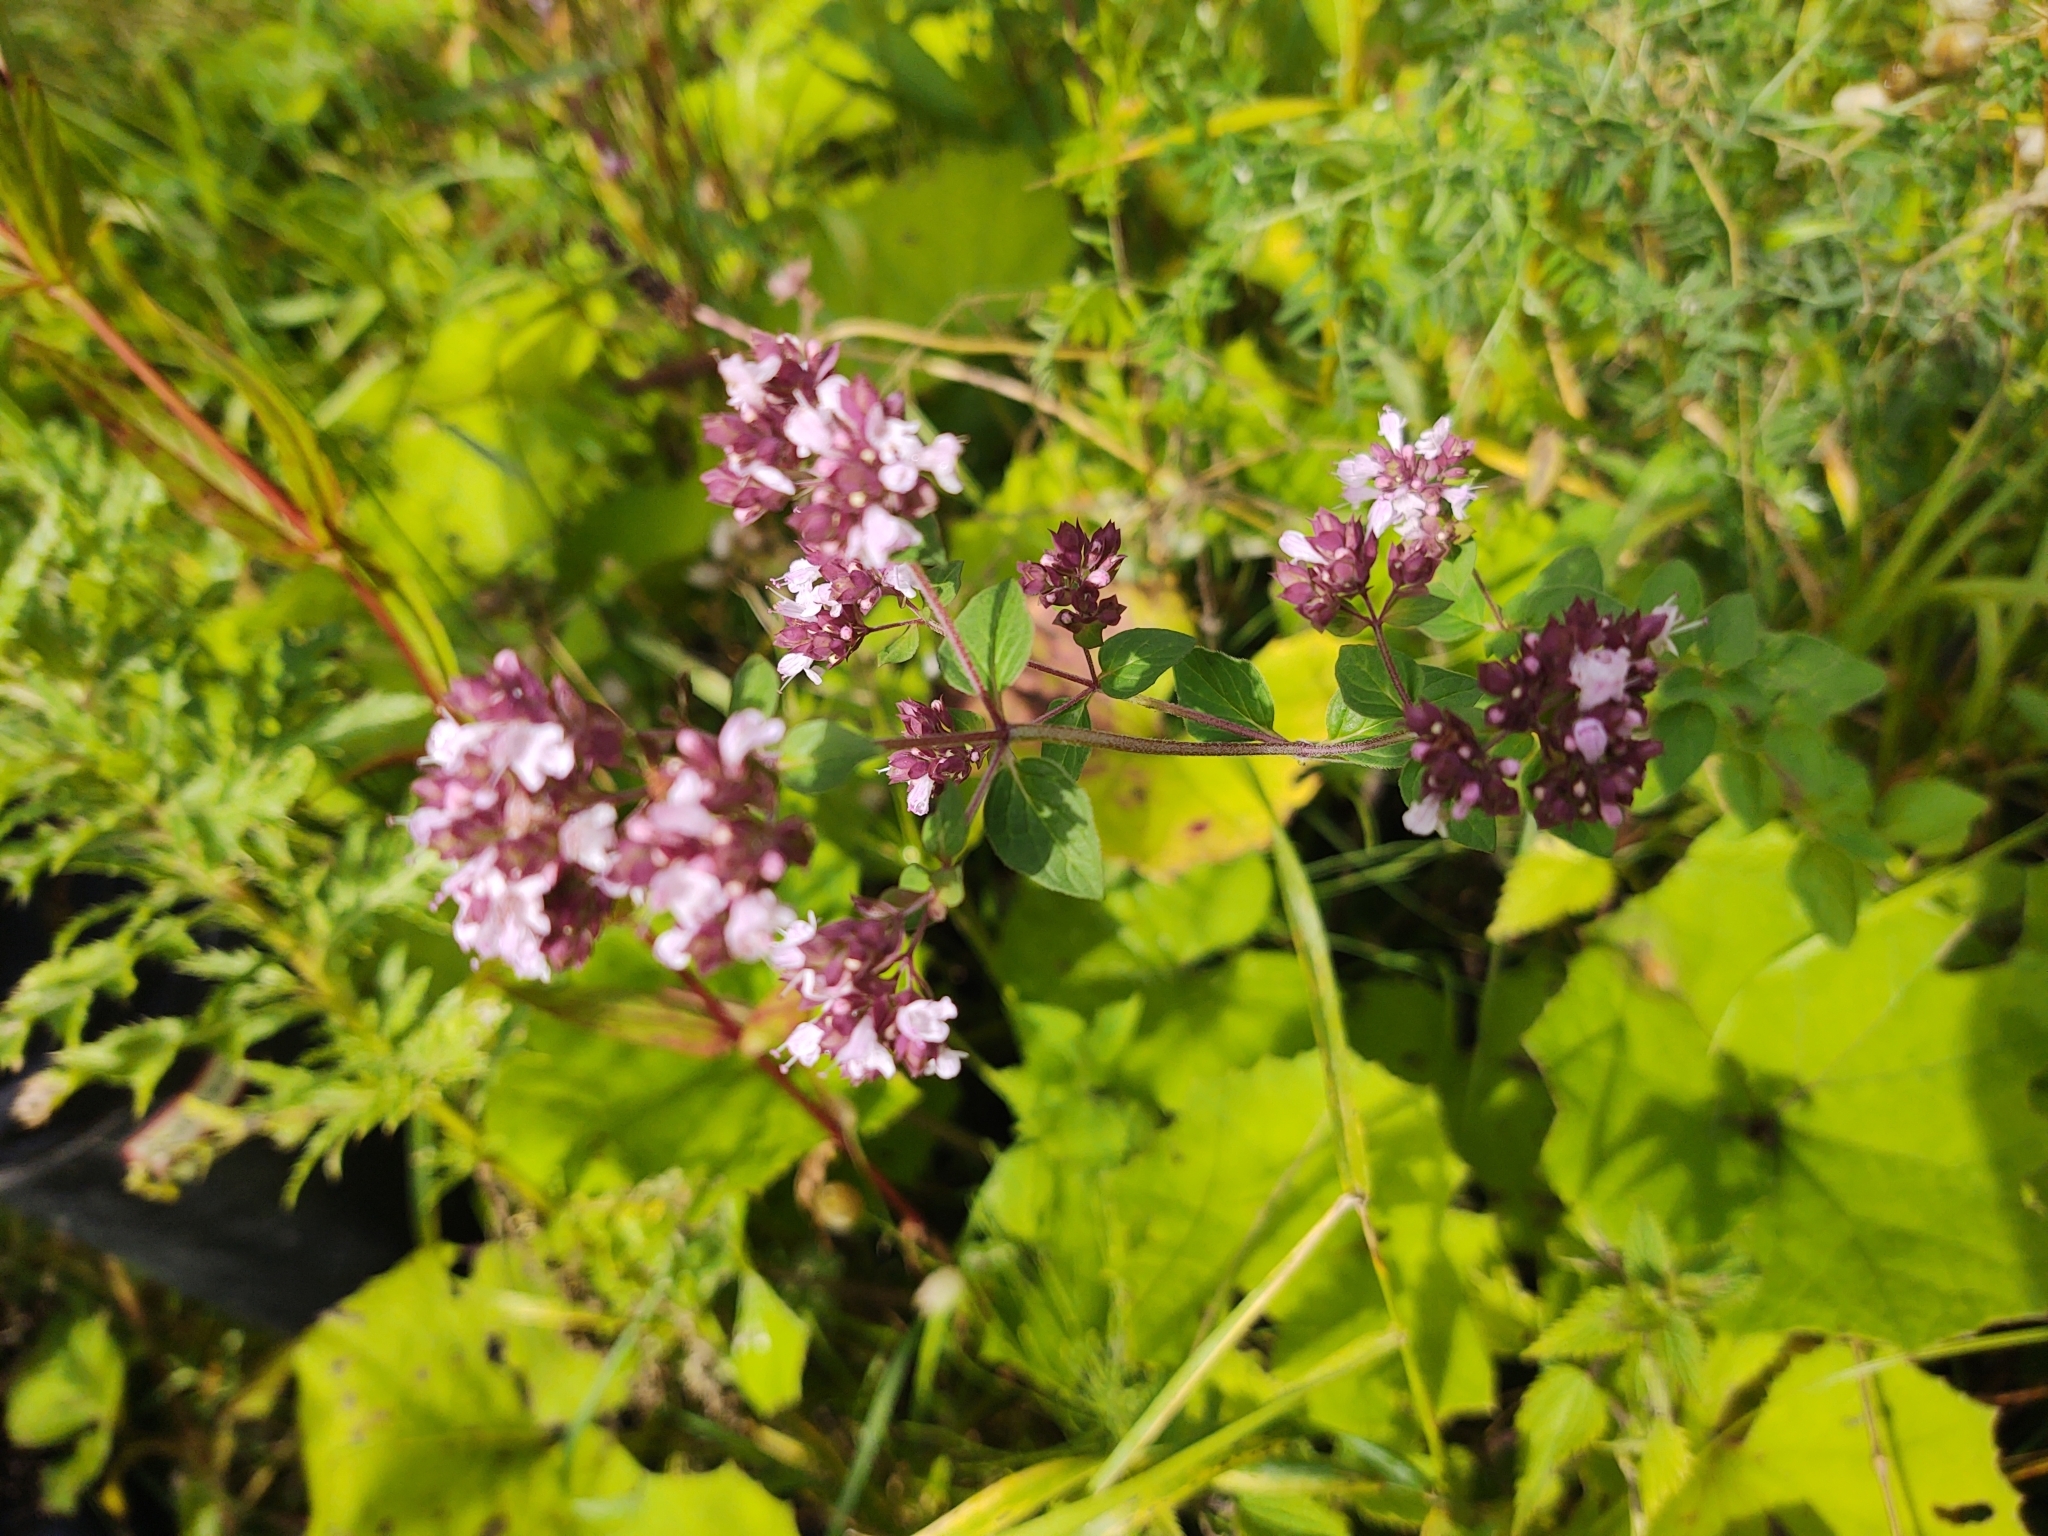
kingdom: Plantae
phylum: Tracheophyta
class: Magnoliopsida
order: Lamiales
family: Lamiaceae
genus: Origanum
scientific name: Origanum vulgare
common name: Wild marjoram
